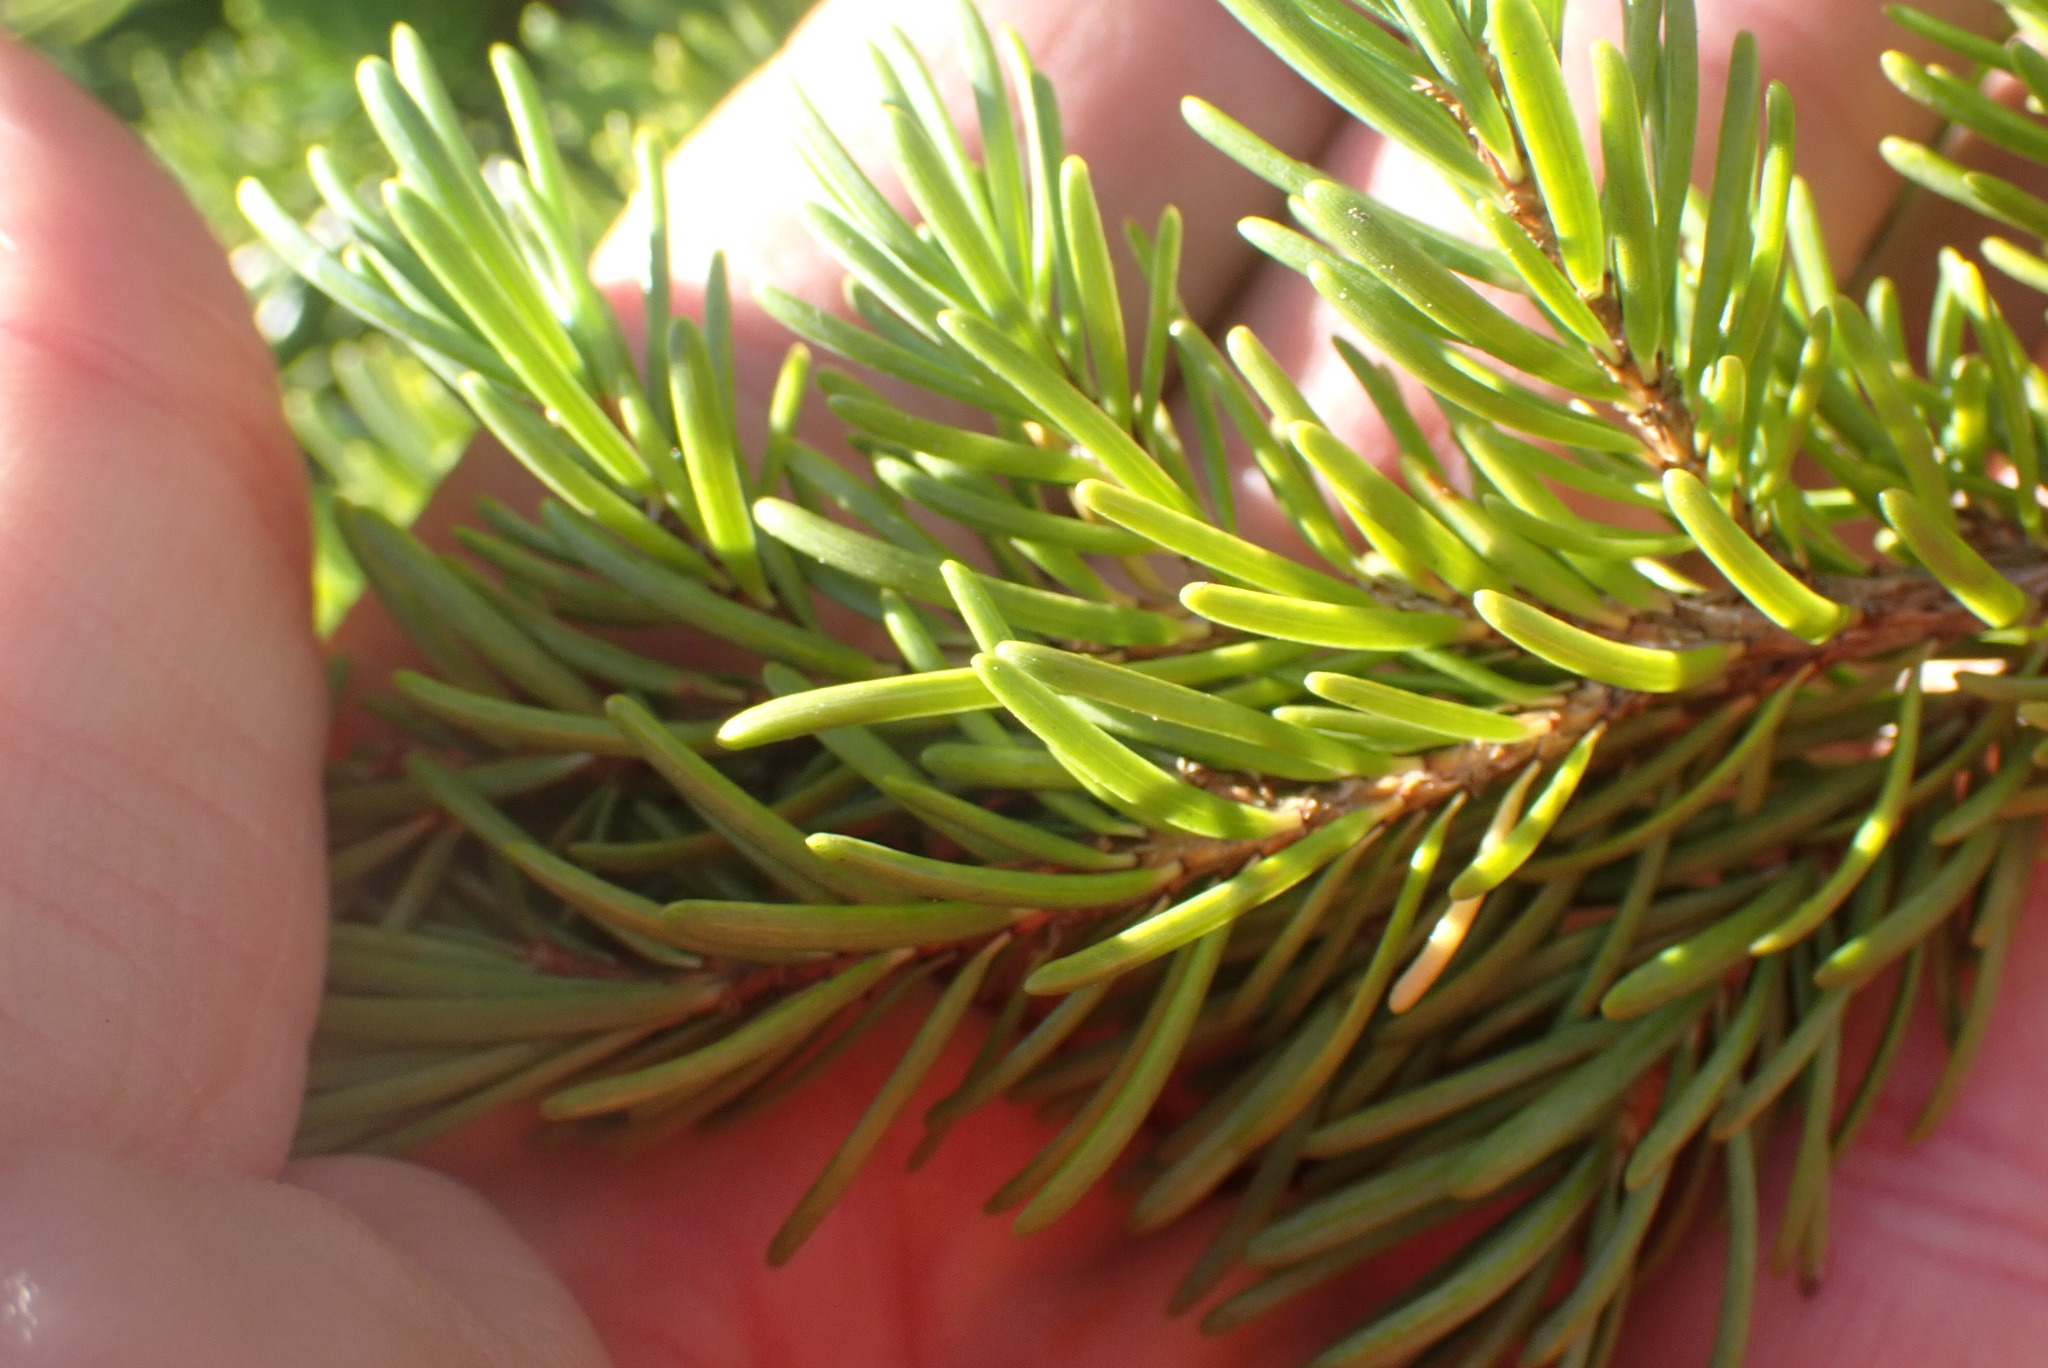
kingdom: Plantae
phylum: Tracheophyta
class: Pinopsida
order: Pinales
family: Pinaceae
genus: Tsuga
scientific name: Tsuga mertensiana
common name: Mountain hemlock
